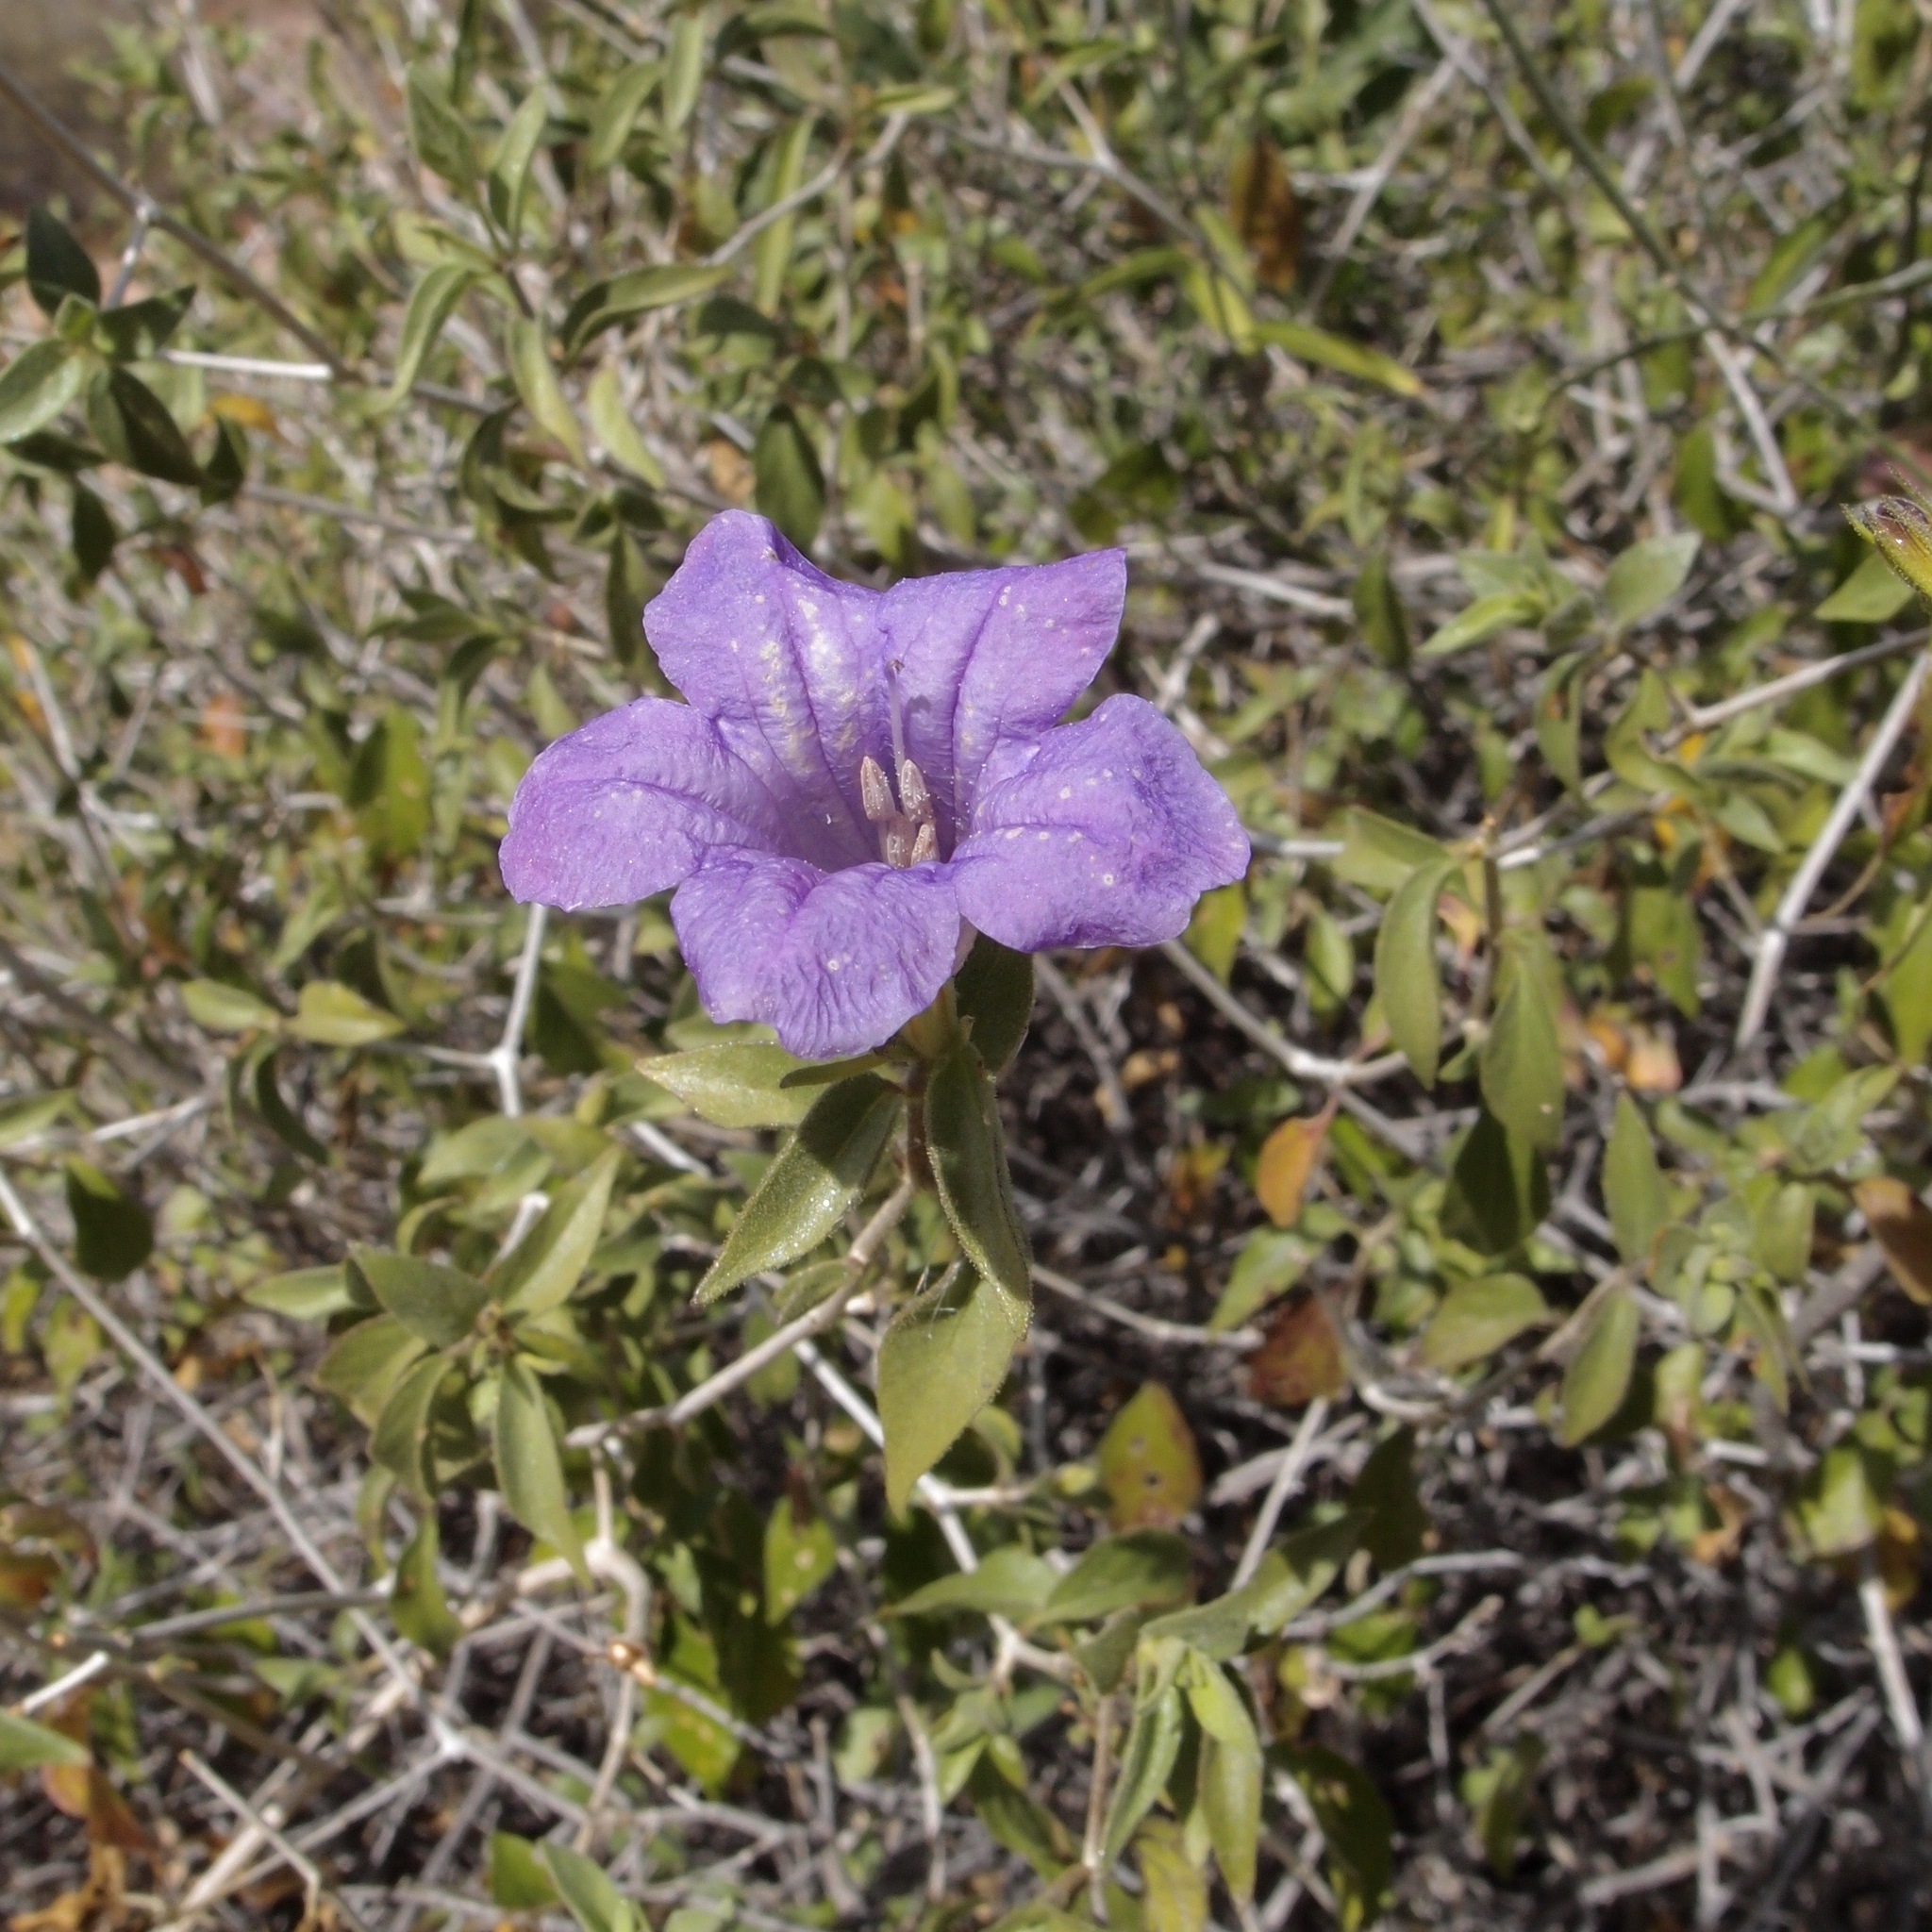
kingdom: Plantae
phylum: Tracheophyta
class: Magnoliopsida
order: Lamiales
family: Acanthaceae
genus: Ruellia
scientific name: Ruellia californica
